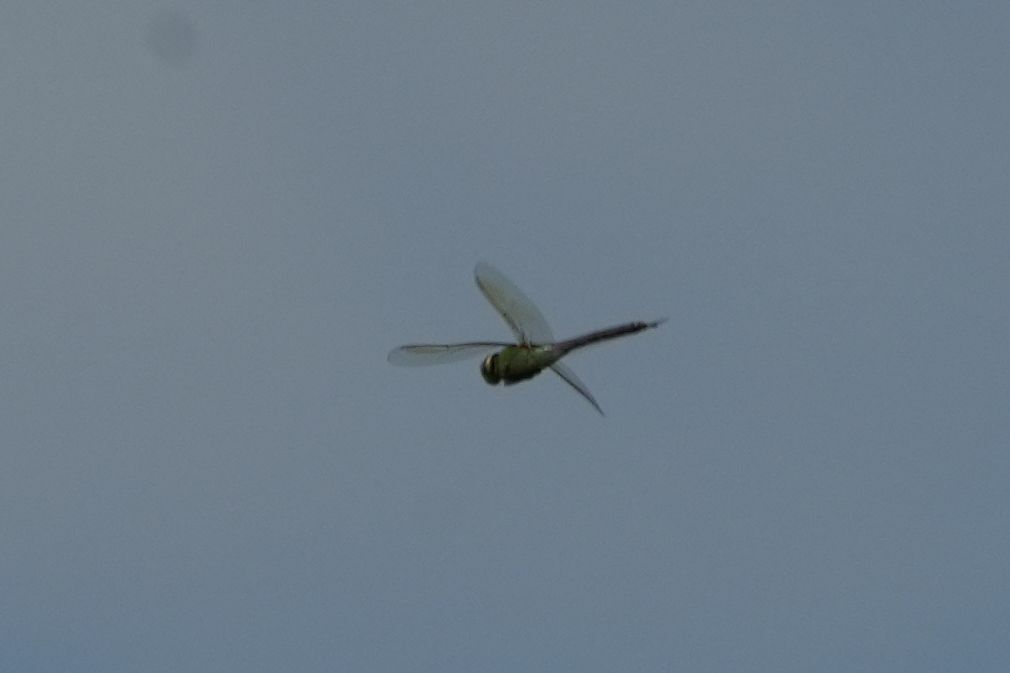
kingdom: Animalia
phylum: Arthropoda
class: Insecta
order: Odonata
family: Aeshnidae
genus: Anax
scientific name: Anax junius
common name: Common green darner
